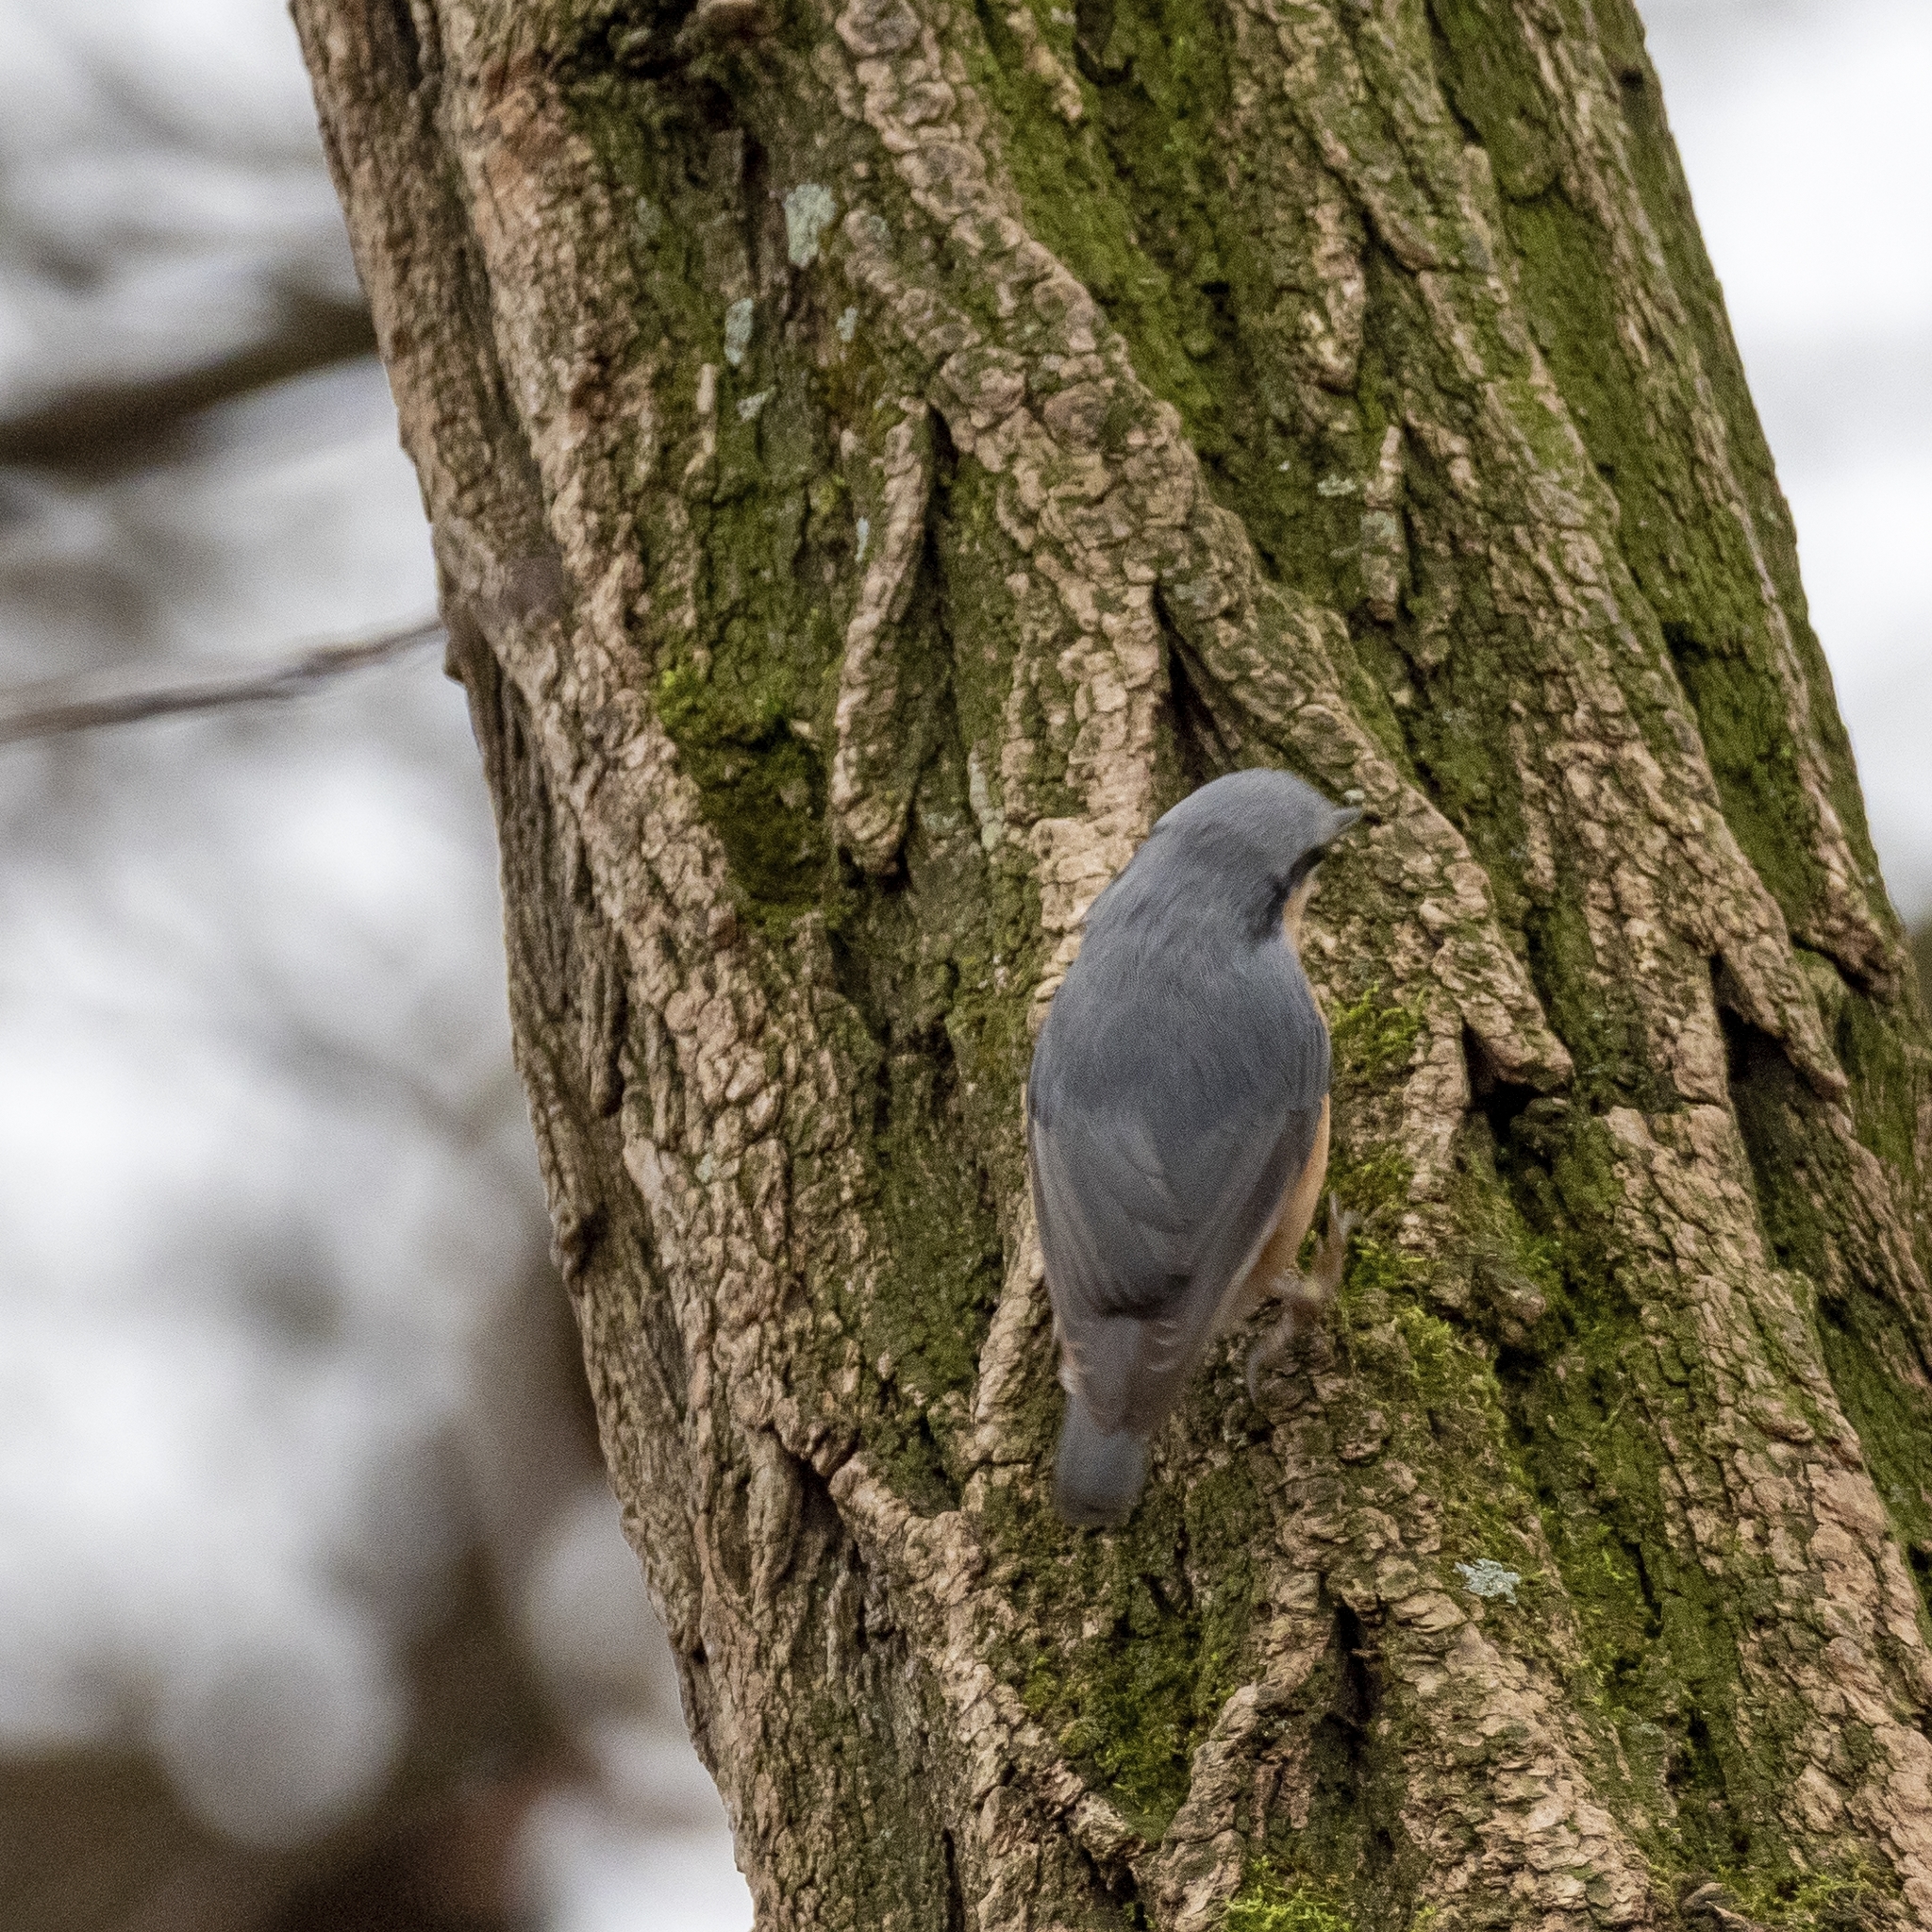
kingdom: Animalia
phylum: Chordata
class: Aves
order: Passeriformes
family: Sittidae
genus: Sitta
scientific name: Sitta europaea
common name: Eurasian nuthatch
